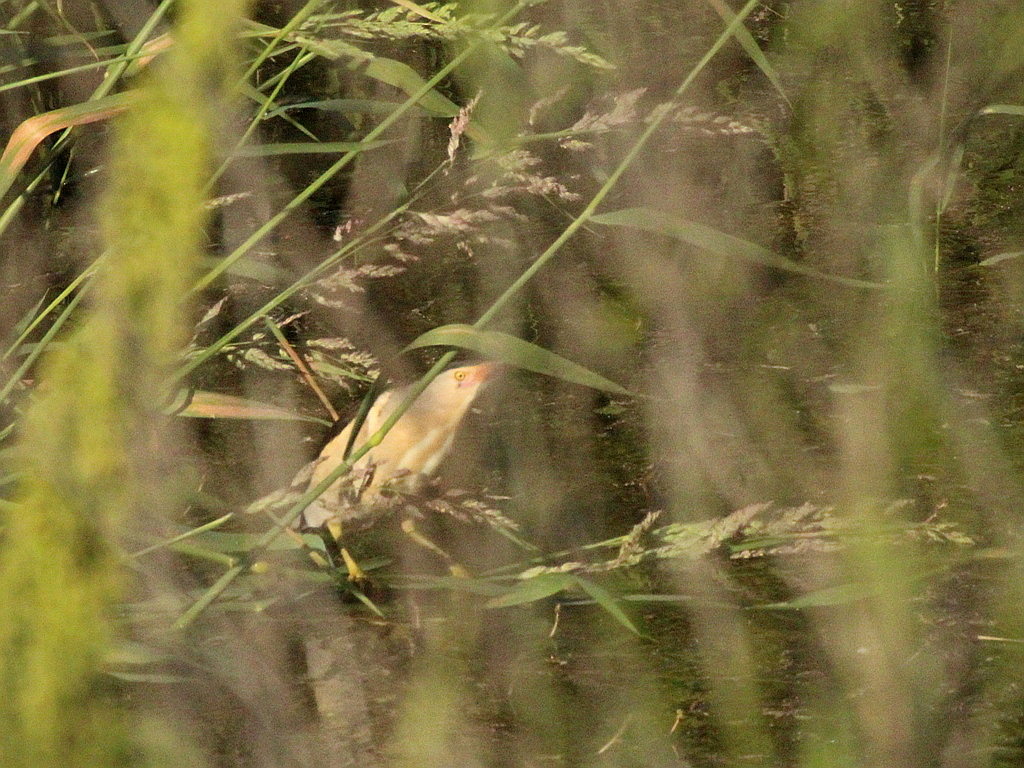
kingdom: Animalia
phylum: Chordata
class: Aves
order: Pelecaniformes
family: Ardeidae
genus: Ixobrychus
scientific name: Ixobrychus minutus
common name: Little bittern
